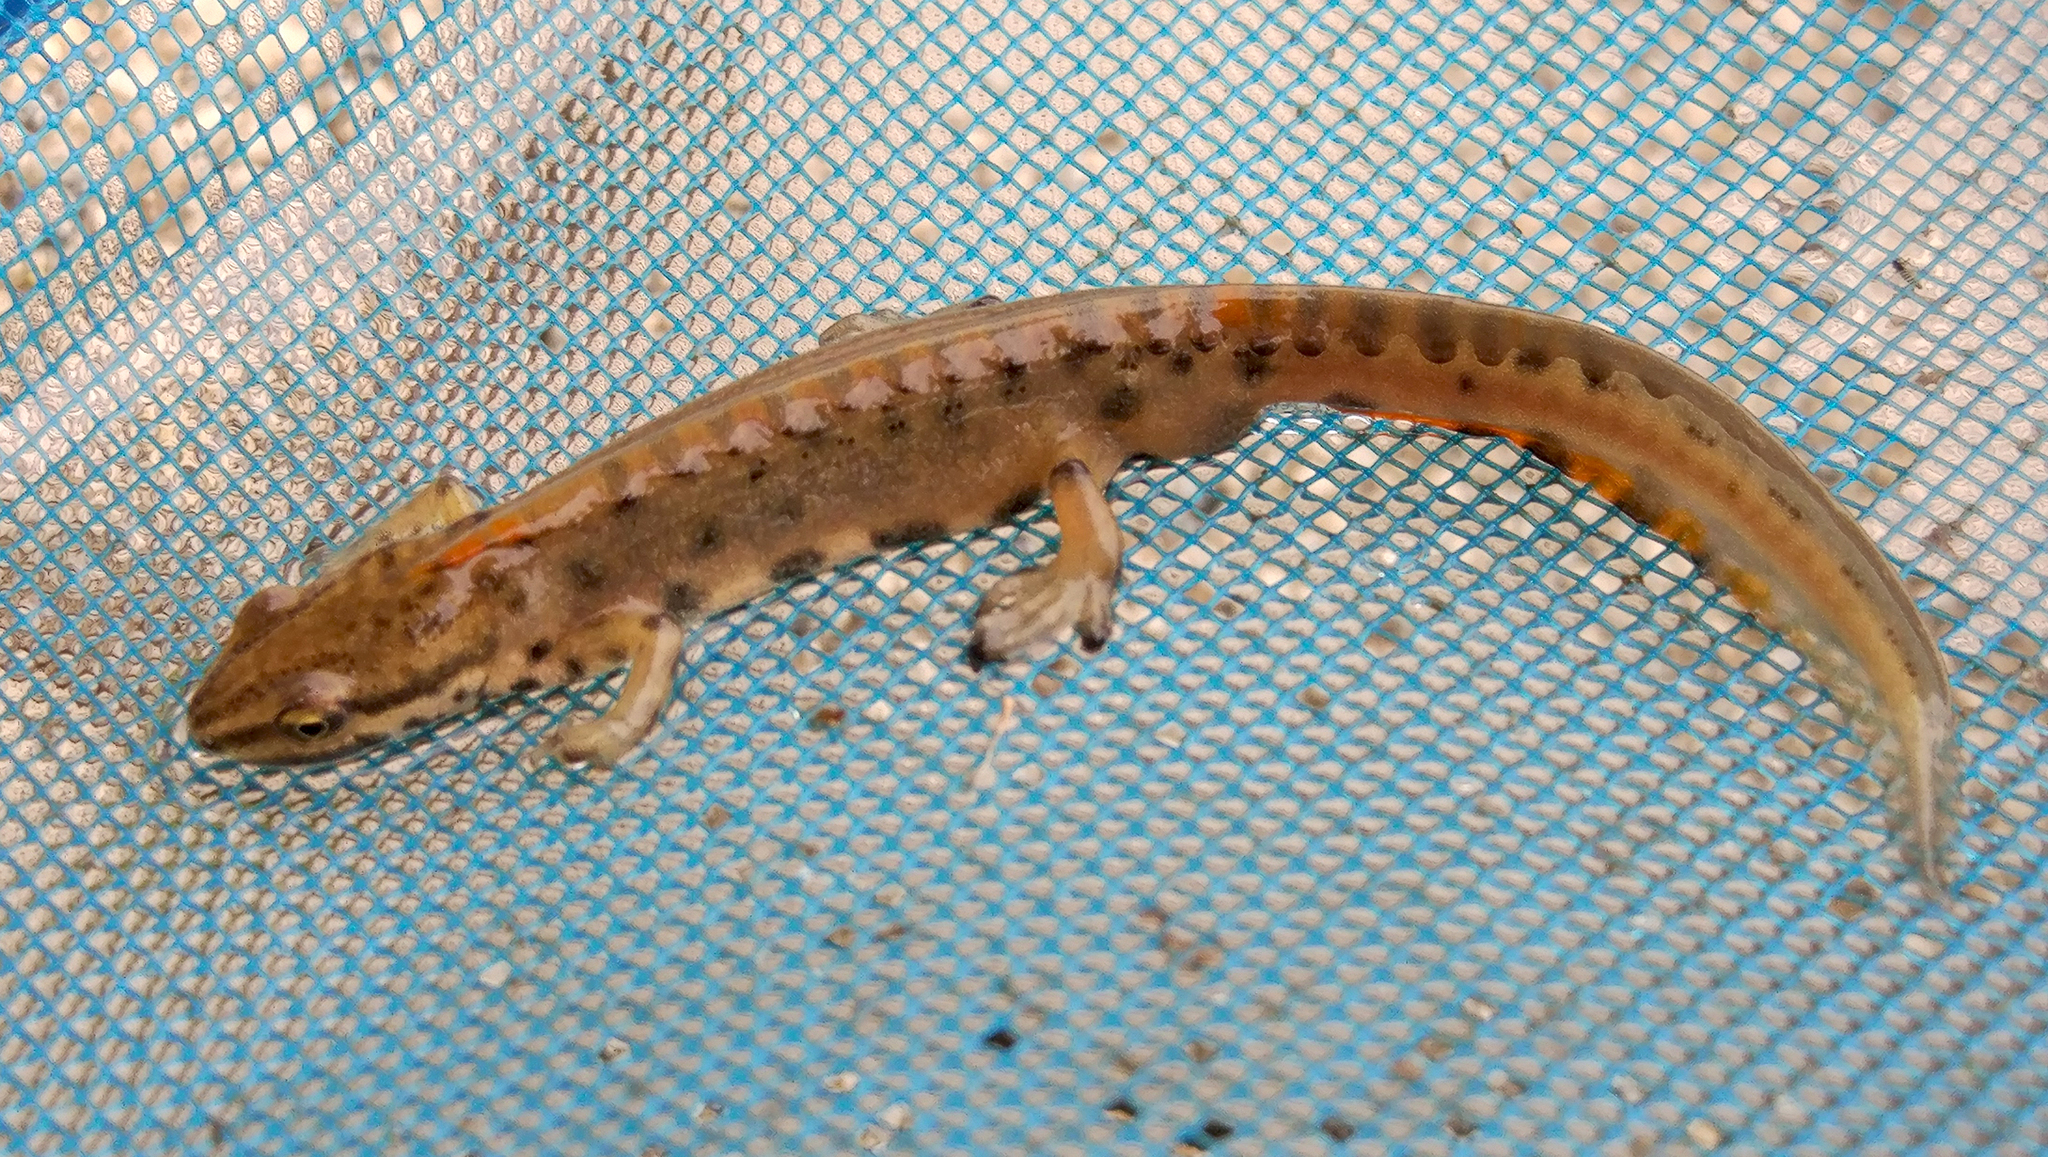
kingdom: Animalia
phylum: Chordata
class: Amphibia
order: Caudata
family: Salamandridae
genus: Lissotriton
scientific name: Lissotriton schmidtleri
